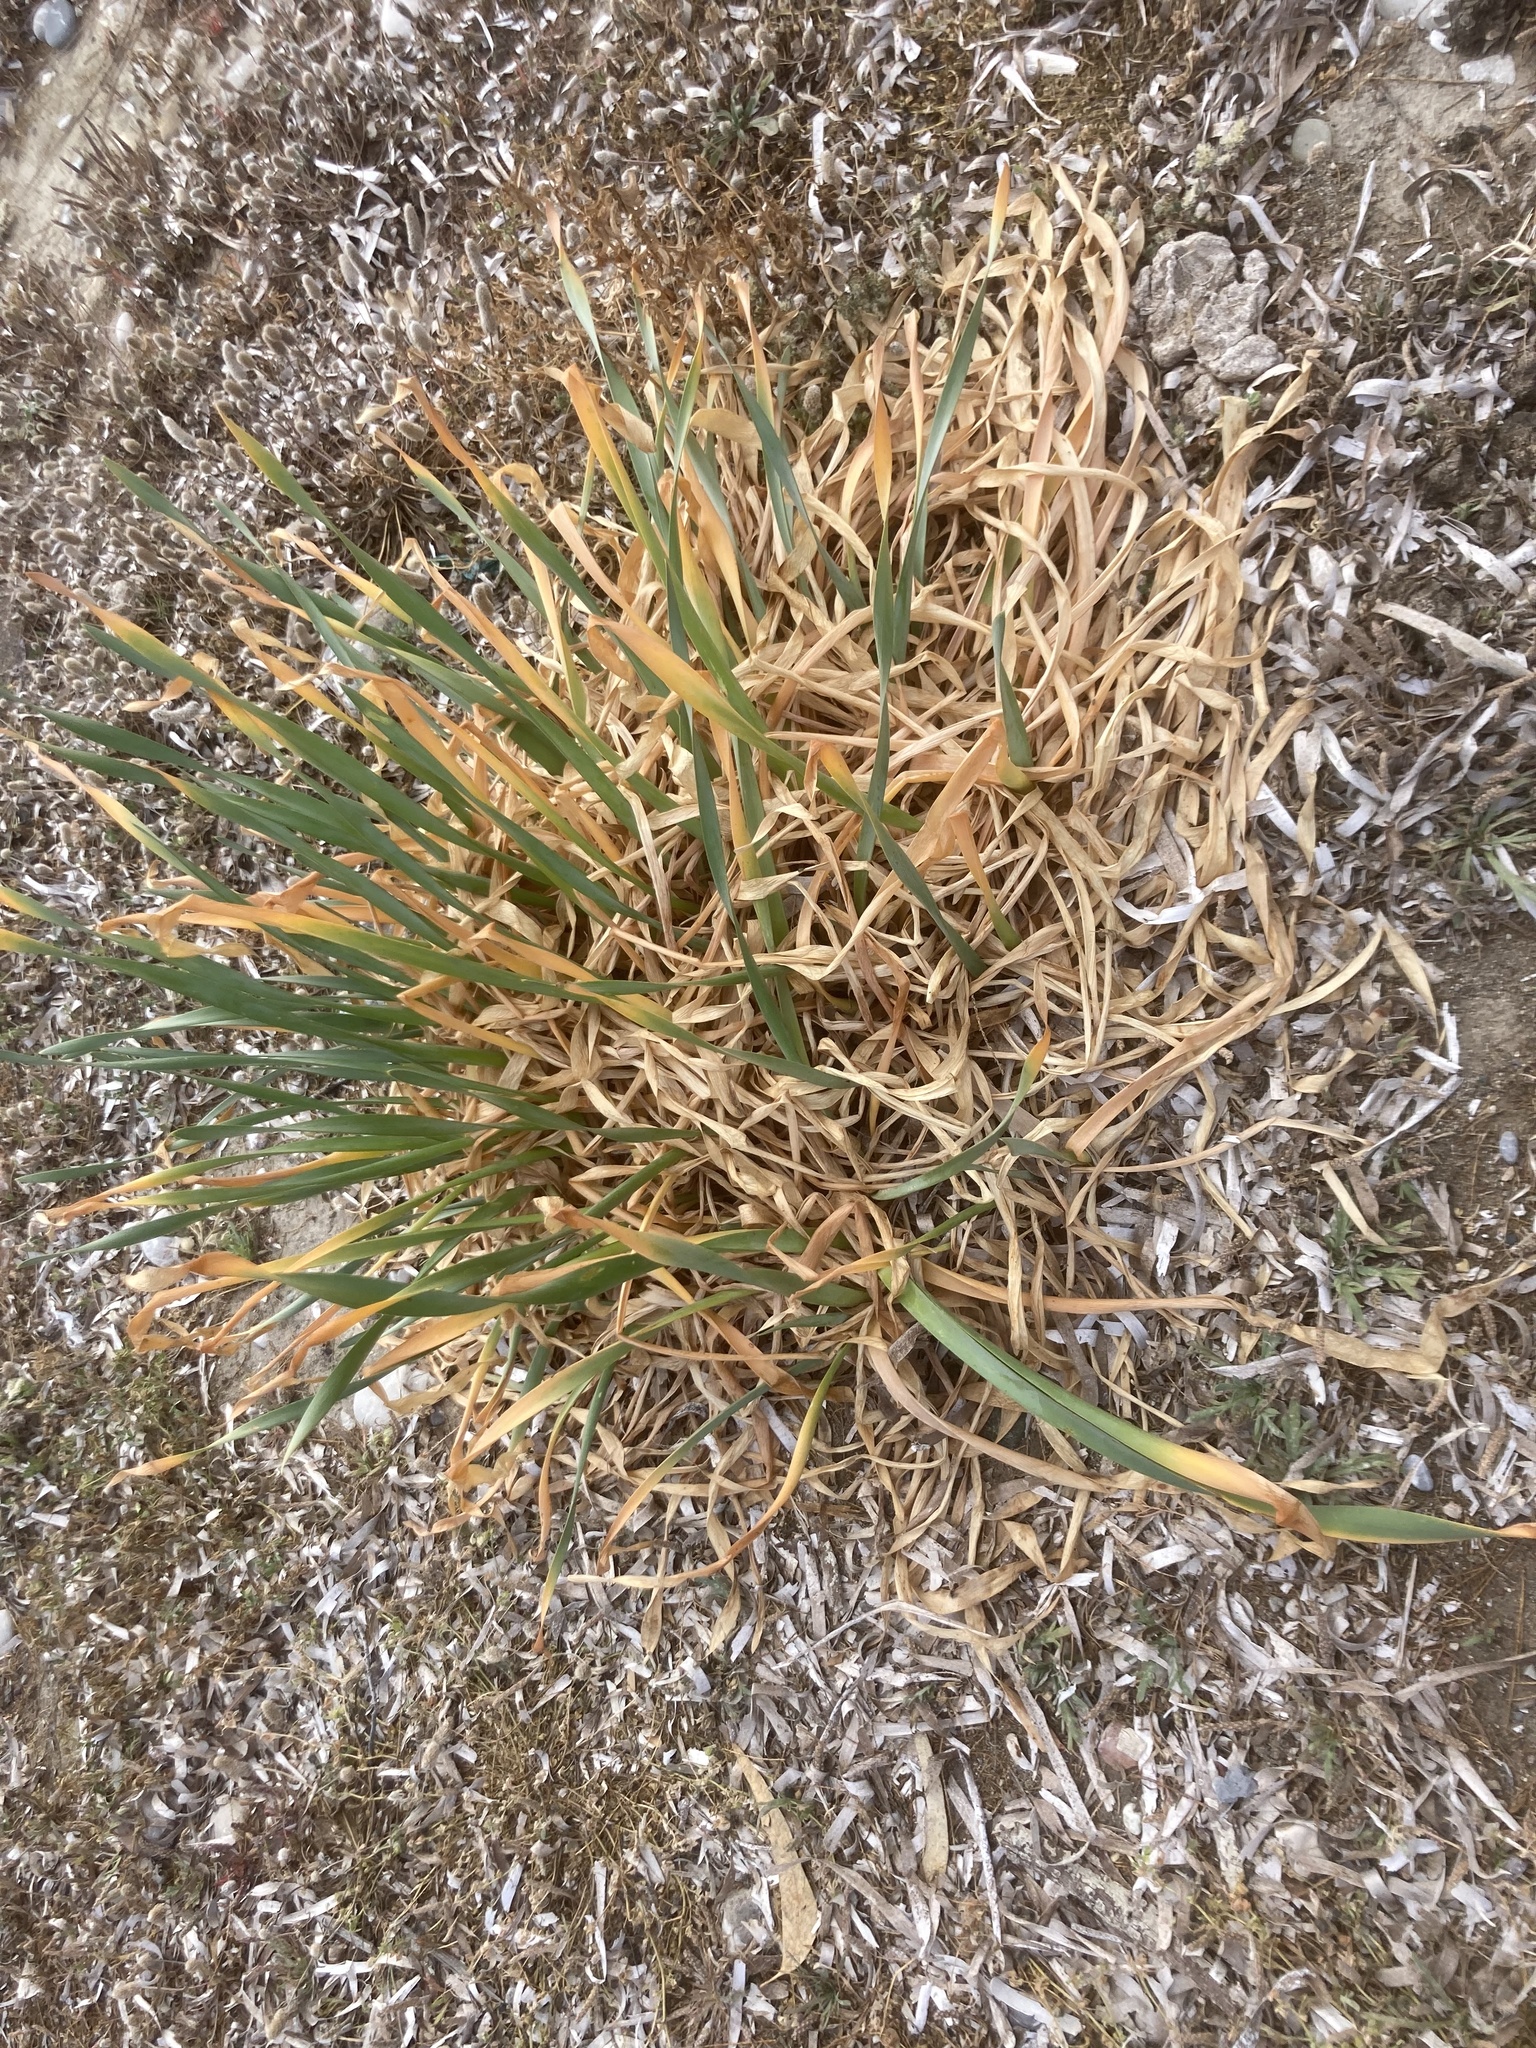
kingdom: Plantae
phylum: Tracheophyta
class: Liliopsida
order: Asparagales
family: Amaryllidaceae
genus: Pancratium
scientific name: Pancratium maritimum
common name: Sea-daffodil
